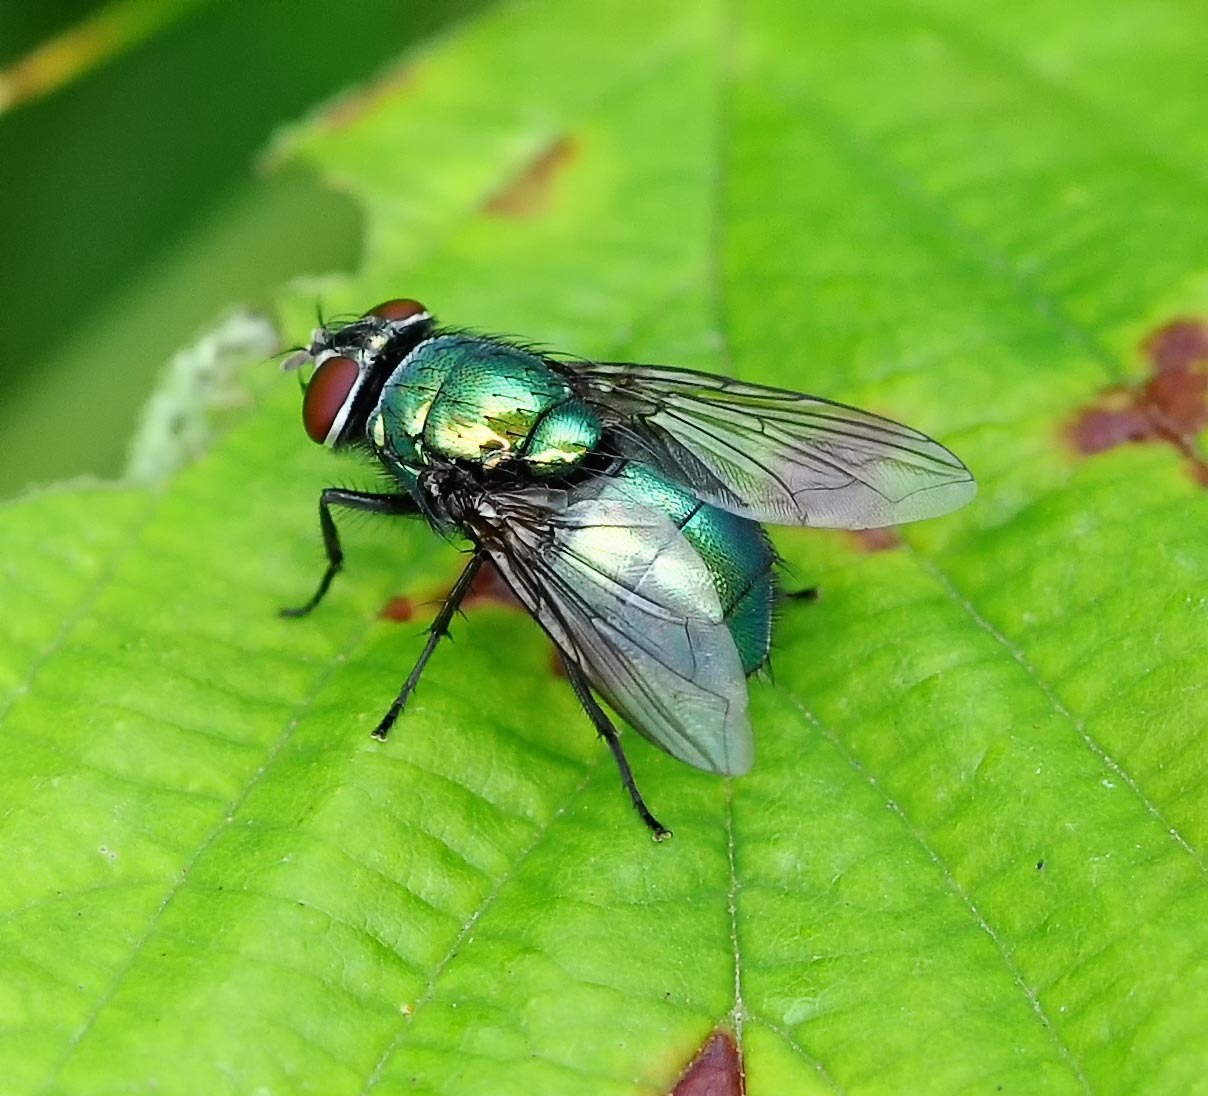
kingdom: Animalia
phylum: Arthropoda
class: Insecta
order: Diptera
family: Calliphoridae
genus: Lucilia
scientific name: Lucilia
